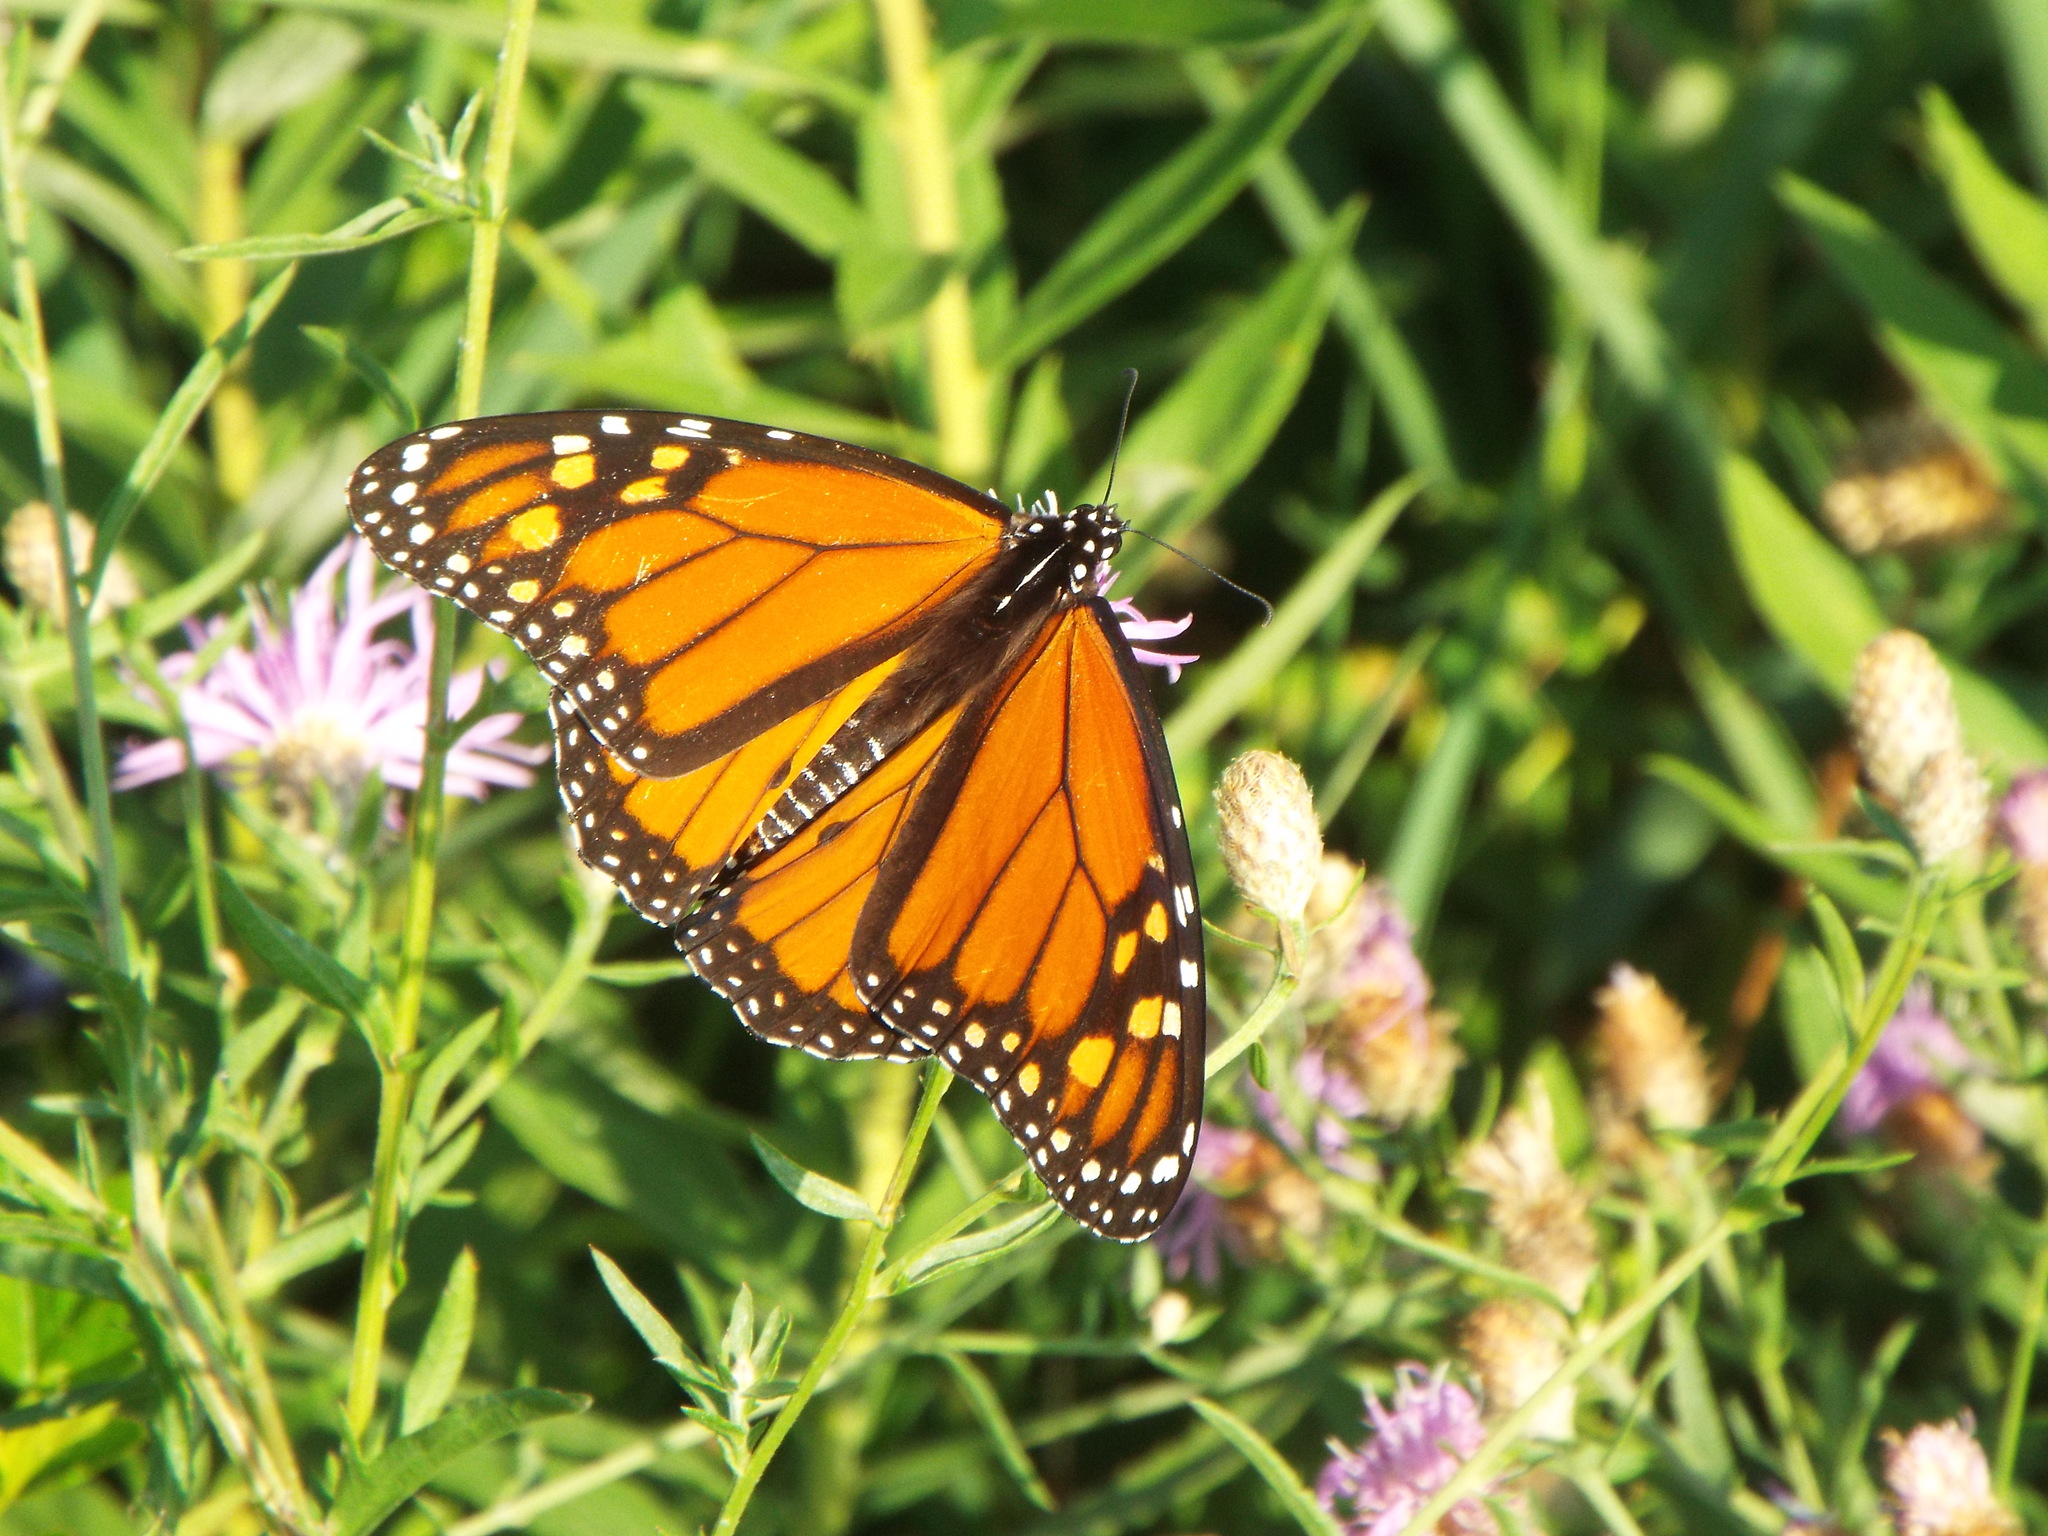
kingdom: Animalia
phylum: Arthropoda
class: Insecta
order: Lepidoptera
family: Nymphalidae
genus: Danaus
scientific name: Danaus plexippus
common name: Monarch
